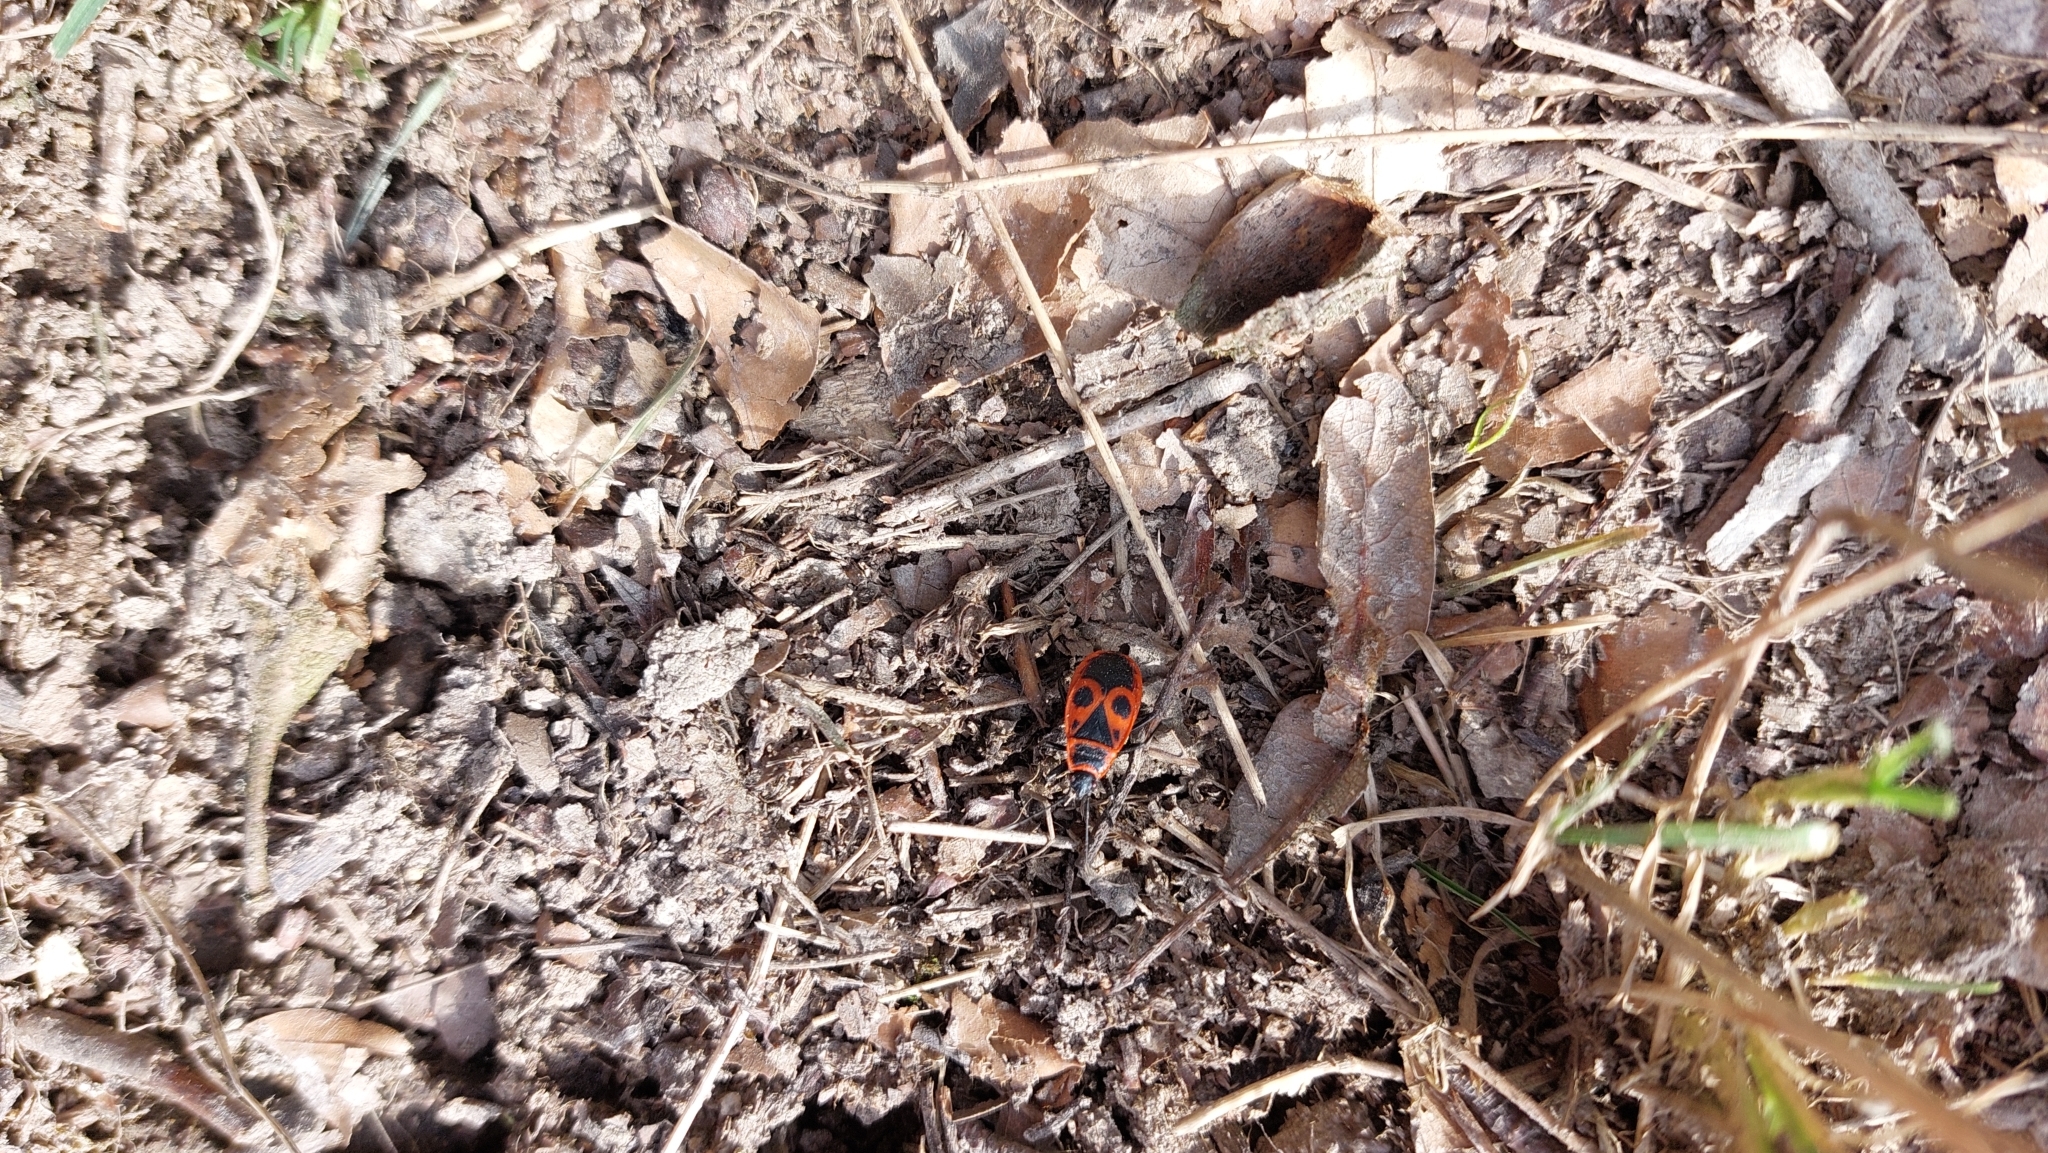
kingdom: Animalia
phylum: Arthropoda
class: Insecta
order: Hemiptera
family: Pyrrhocoridae
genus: Pyrrhocoris
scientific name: Pyrrhocoris apterus
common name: Firebug
